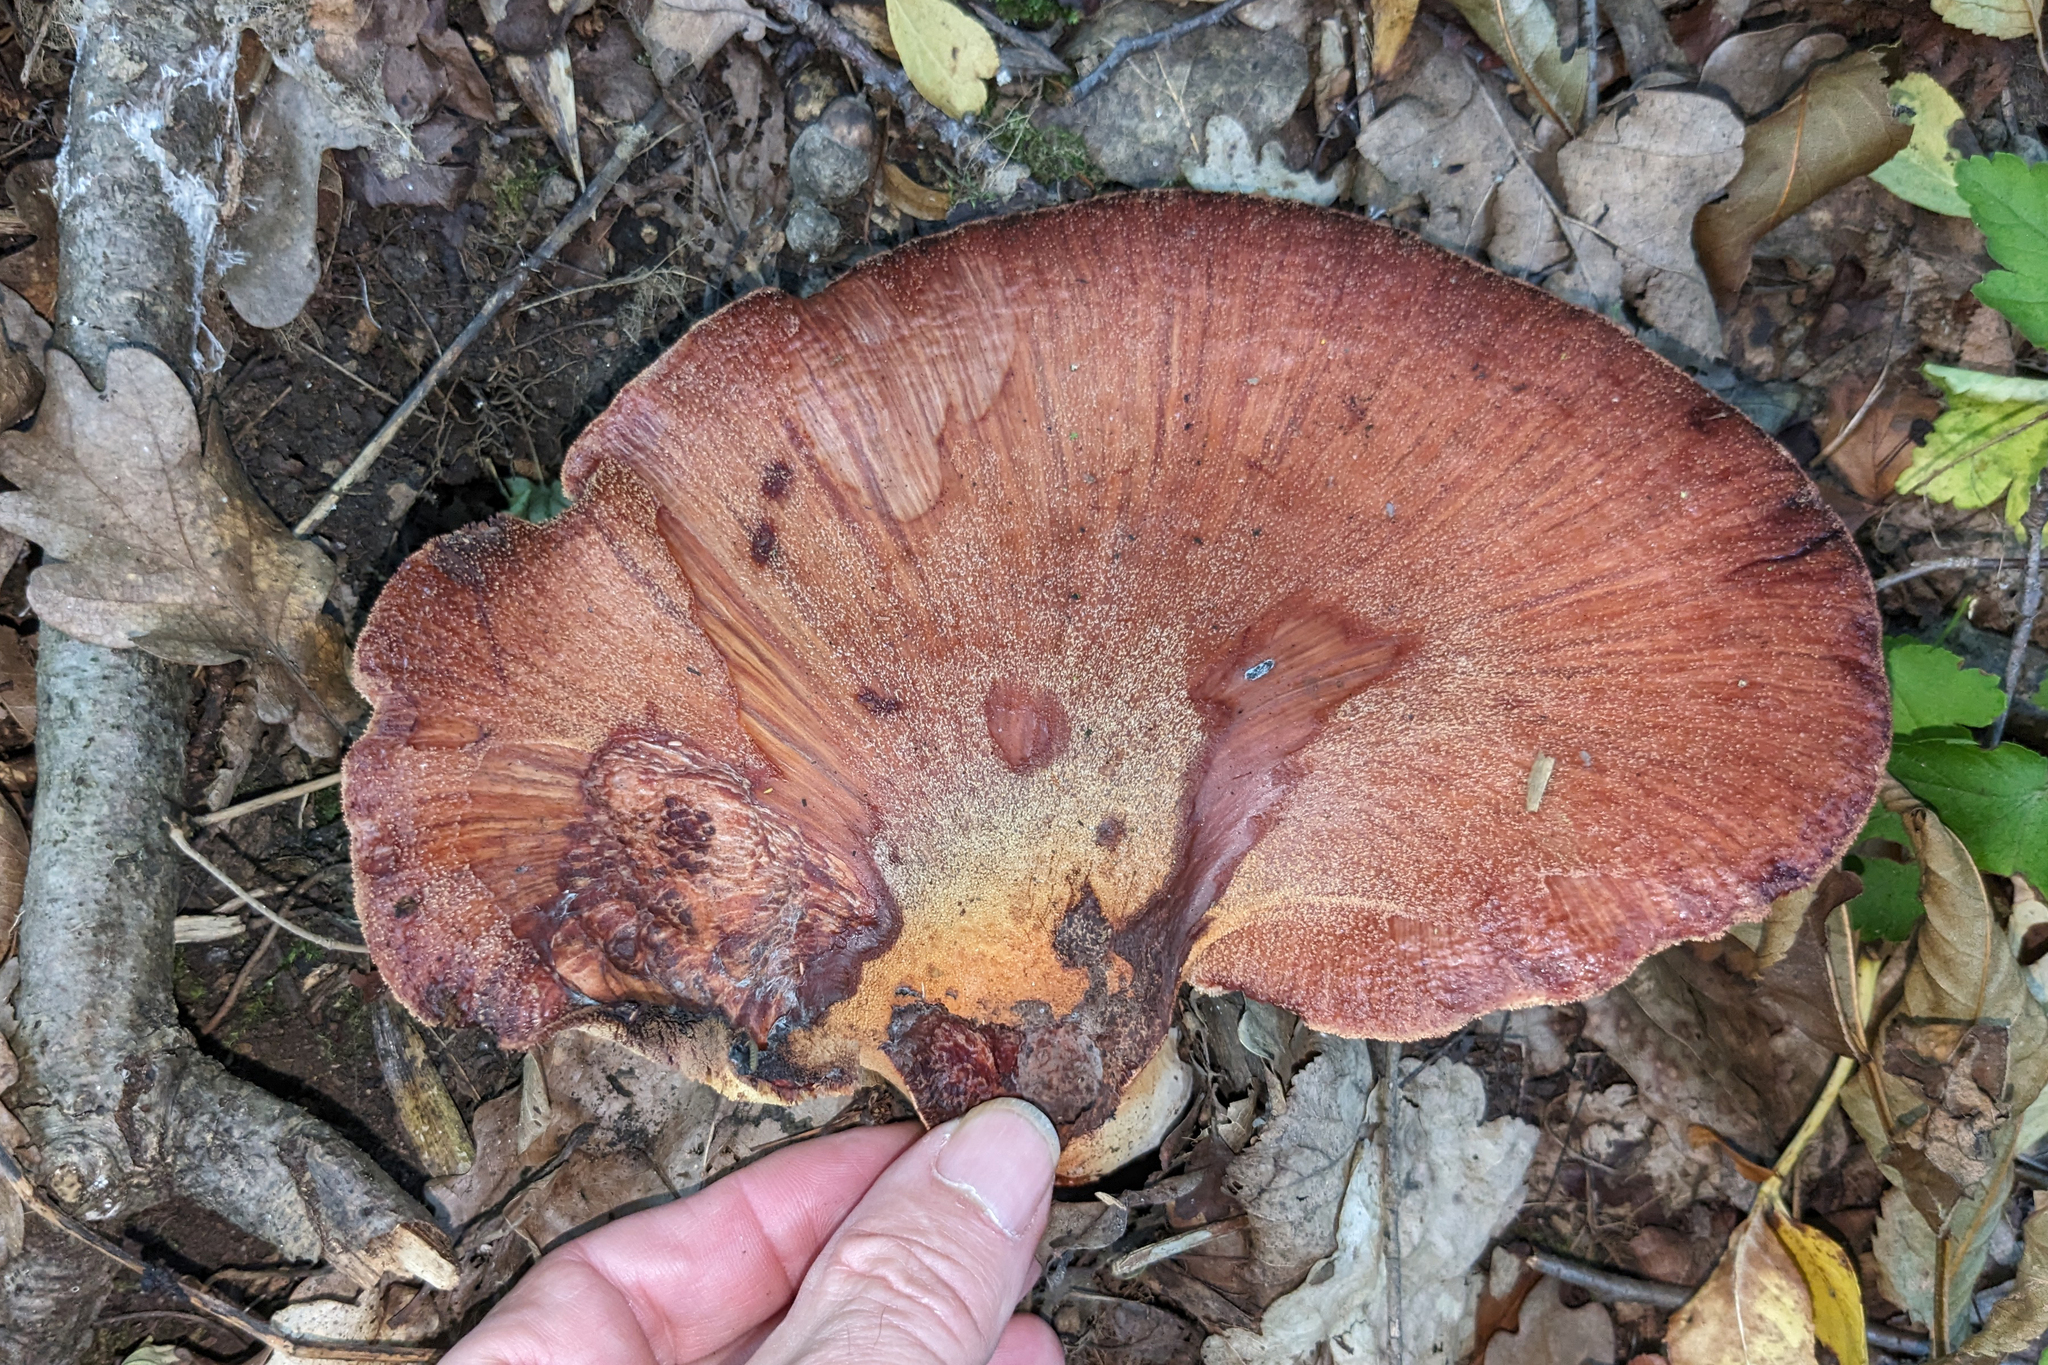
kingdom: Plantae
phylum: Tracheophyta
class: Magnoliopsida
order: Cornales
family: Cornaceae
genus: Cornus
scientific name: Cornus sanguinea
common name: Dogwood
